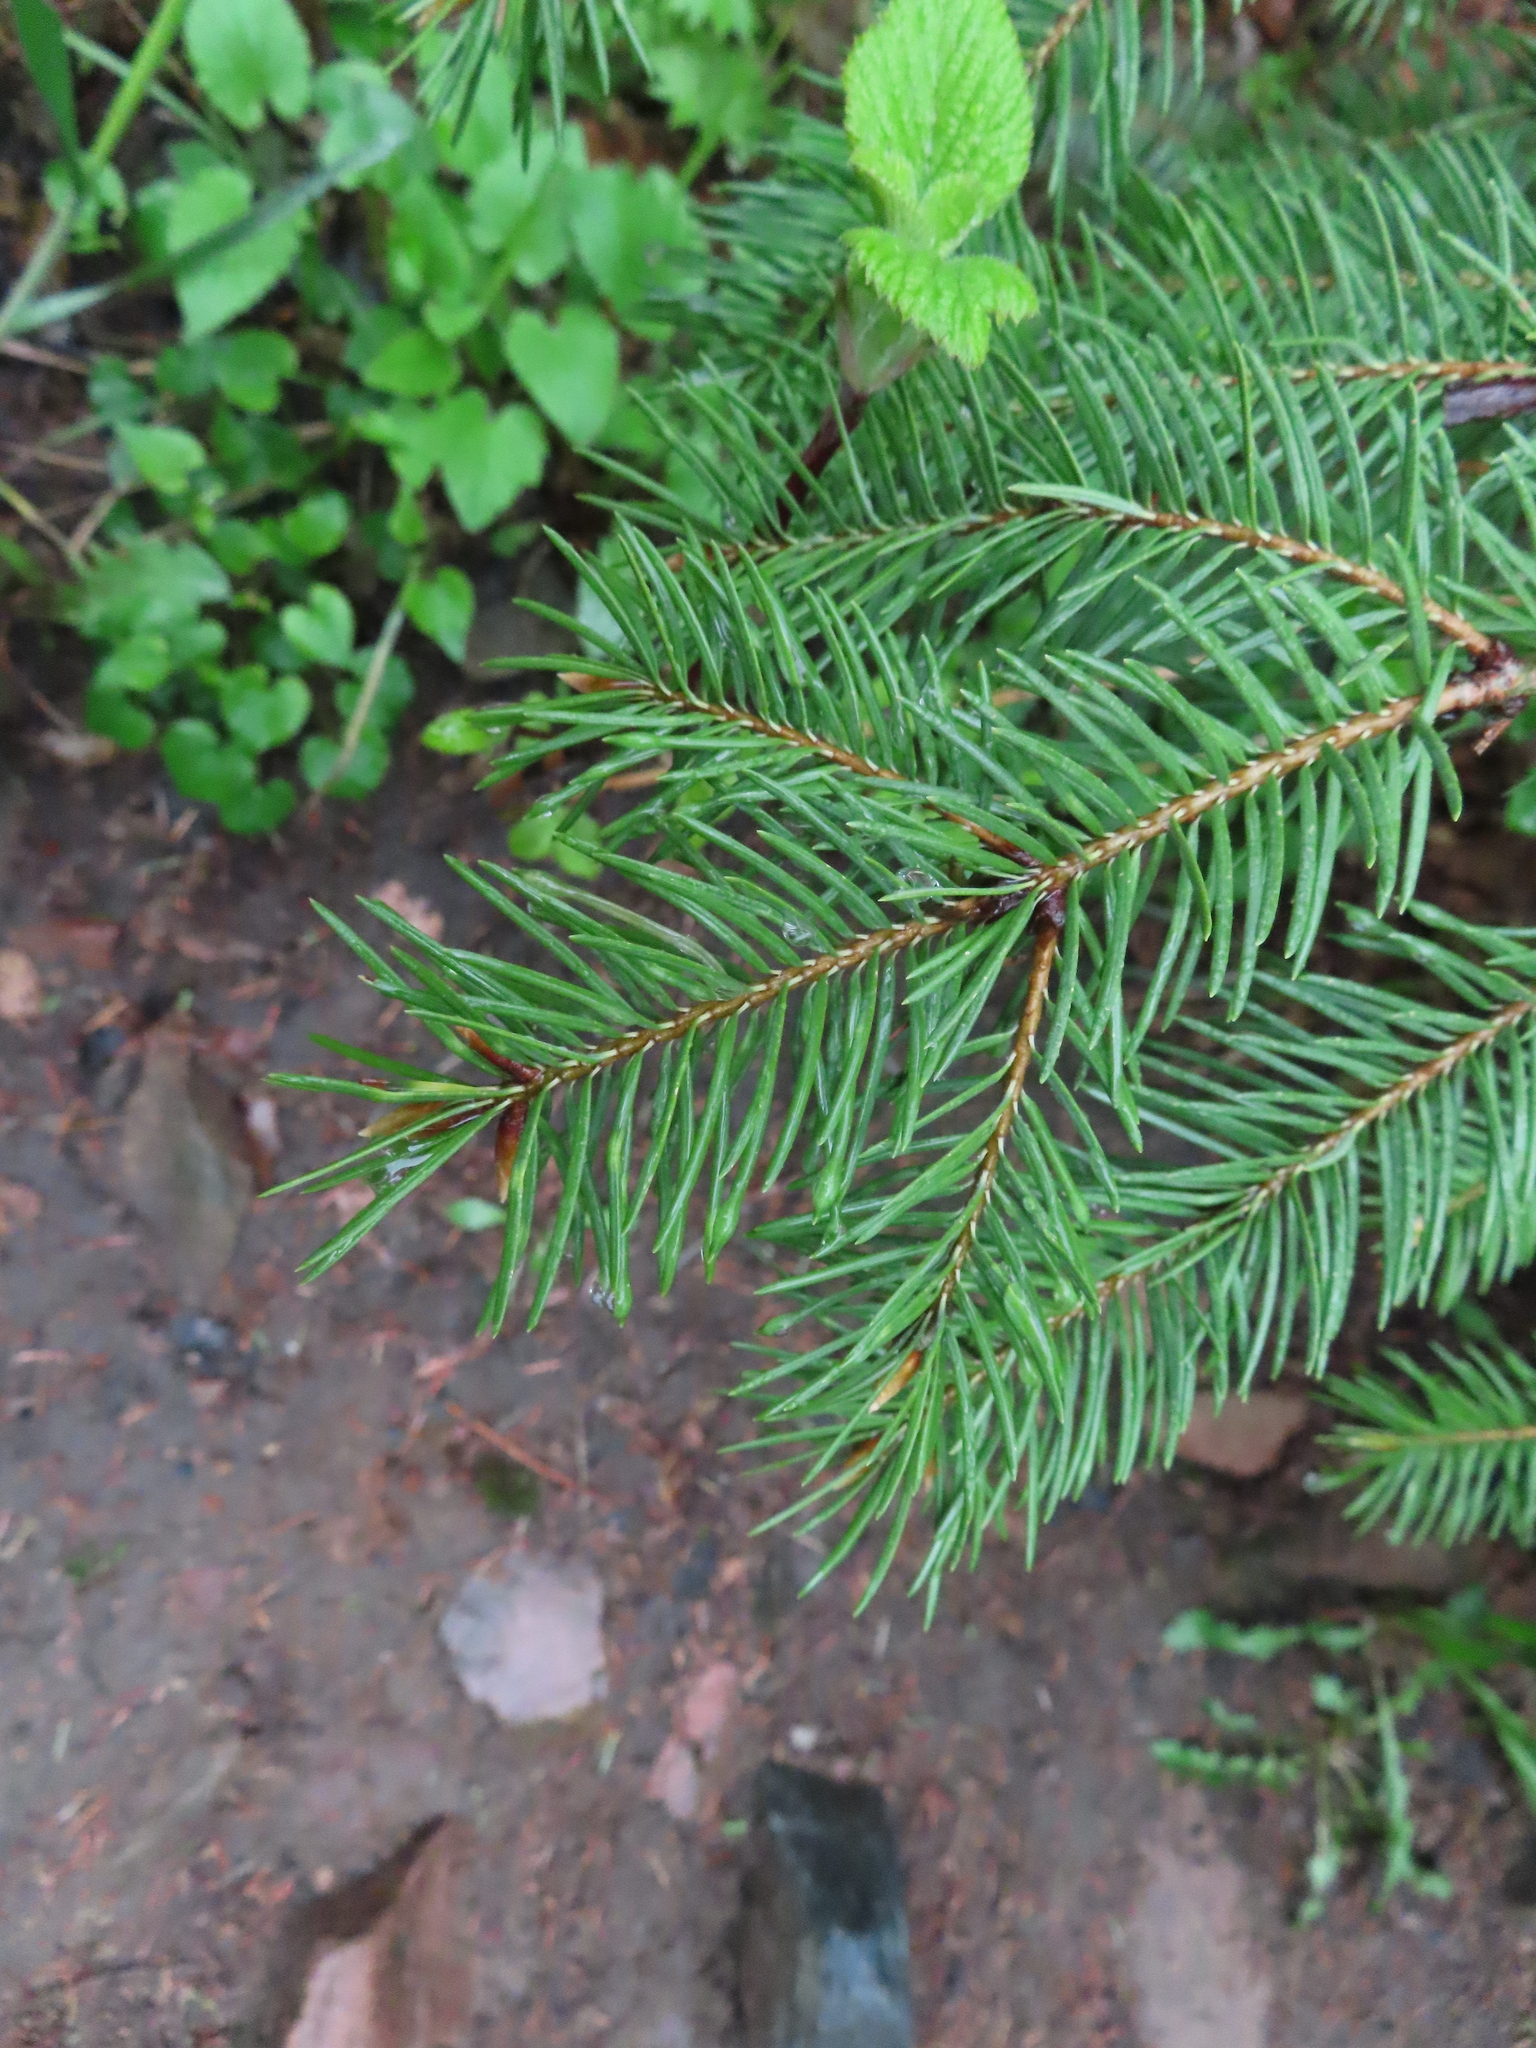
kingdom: Plantae
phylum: Tracheophyta
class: Pinopsida
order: Pinales
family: Pinaceae
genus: Pseudotsuga
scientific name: Pseudotsuga menziesii
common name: Douglas fir
